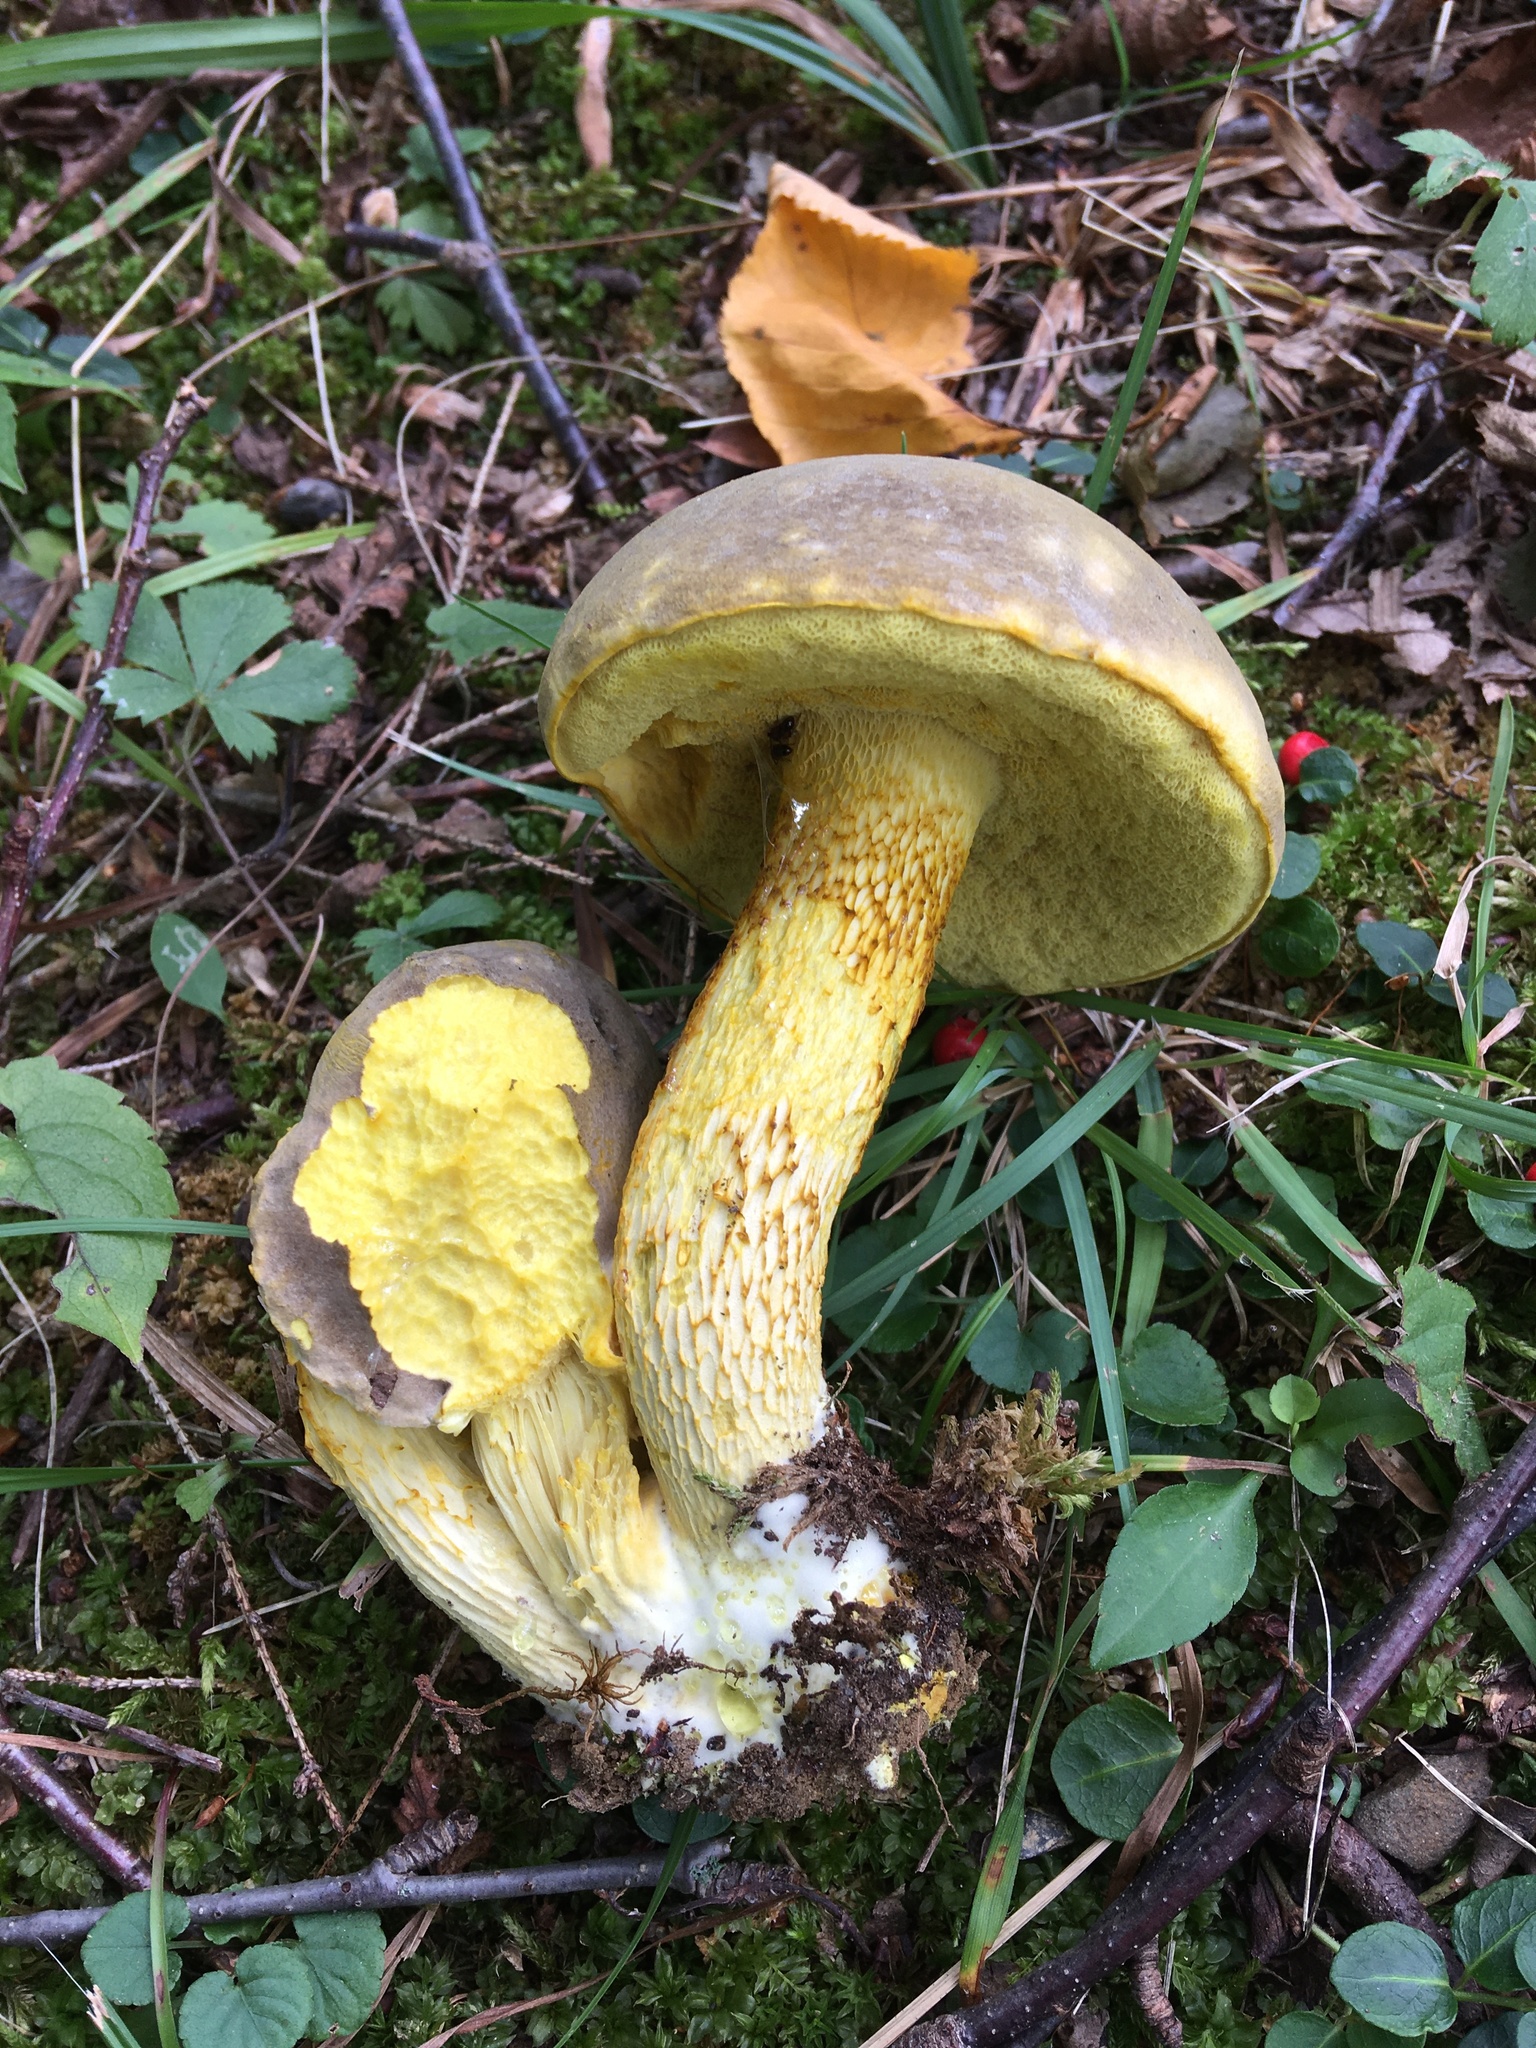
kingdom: Fungi
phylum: Basidiomycota
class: Agaricomycetes
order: Boletales
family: Boletaceae
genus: Retiboletus
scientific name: Retiboletus ornatipes
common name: Ornate-stalked bolete
